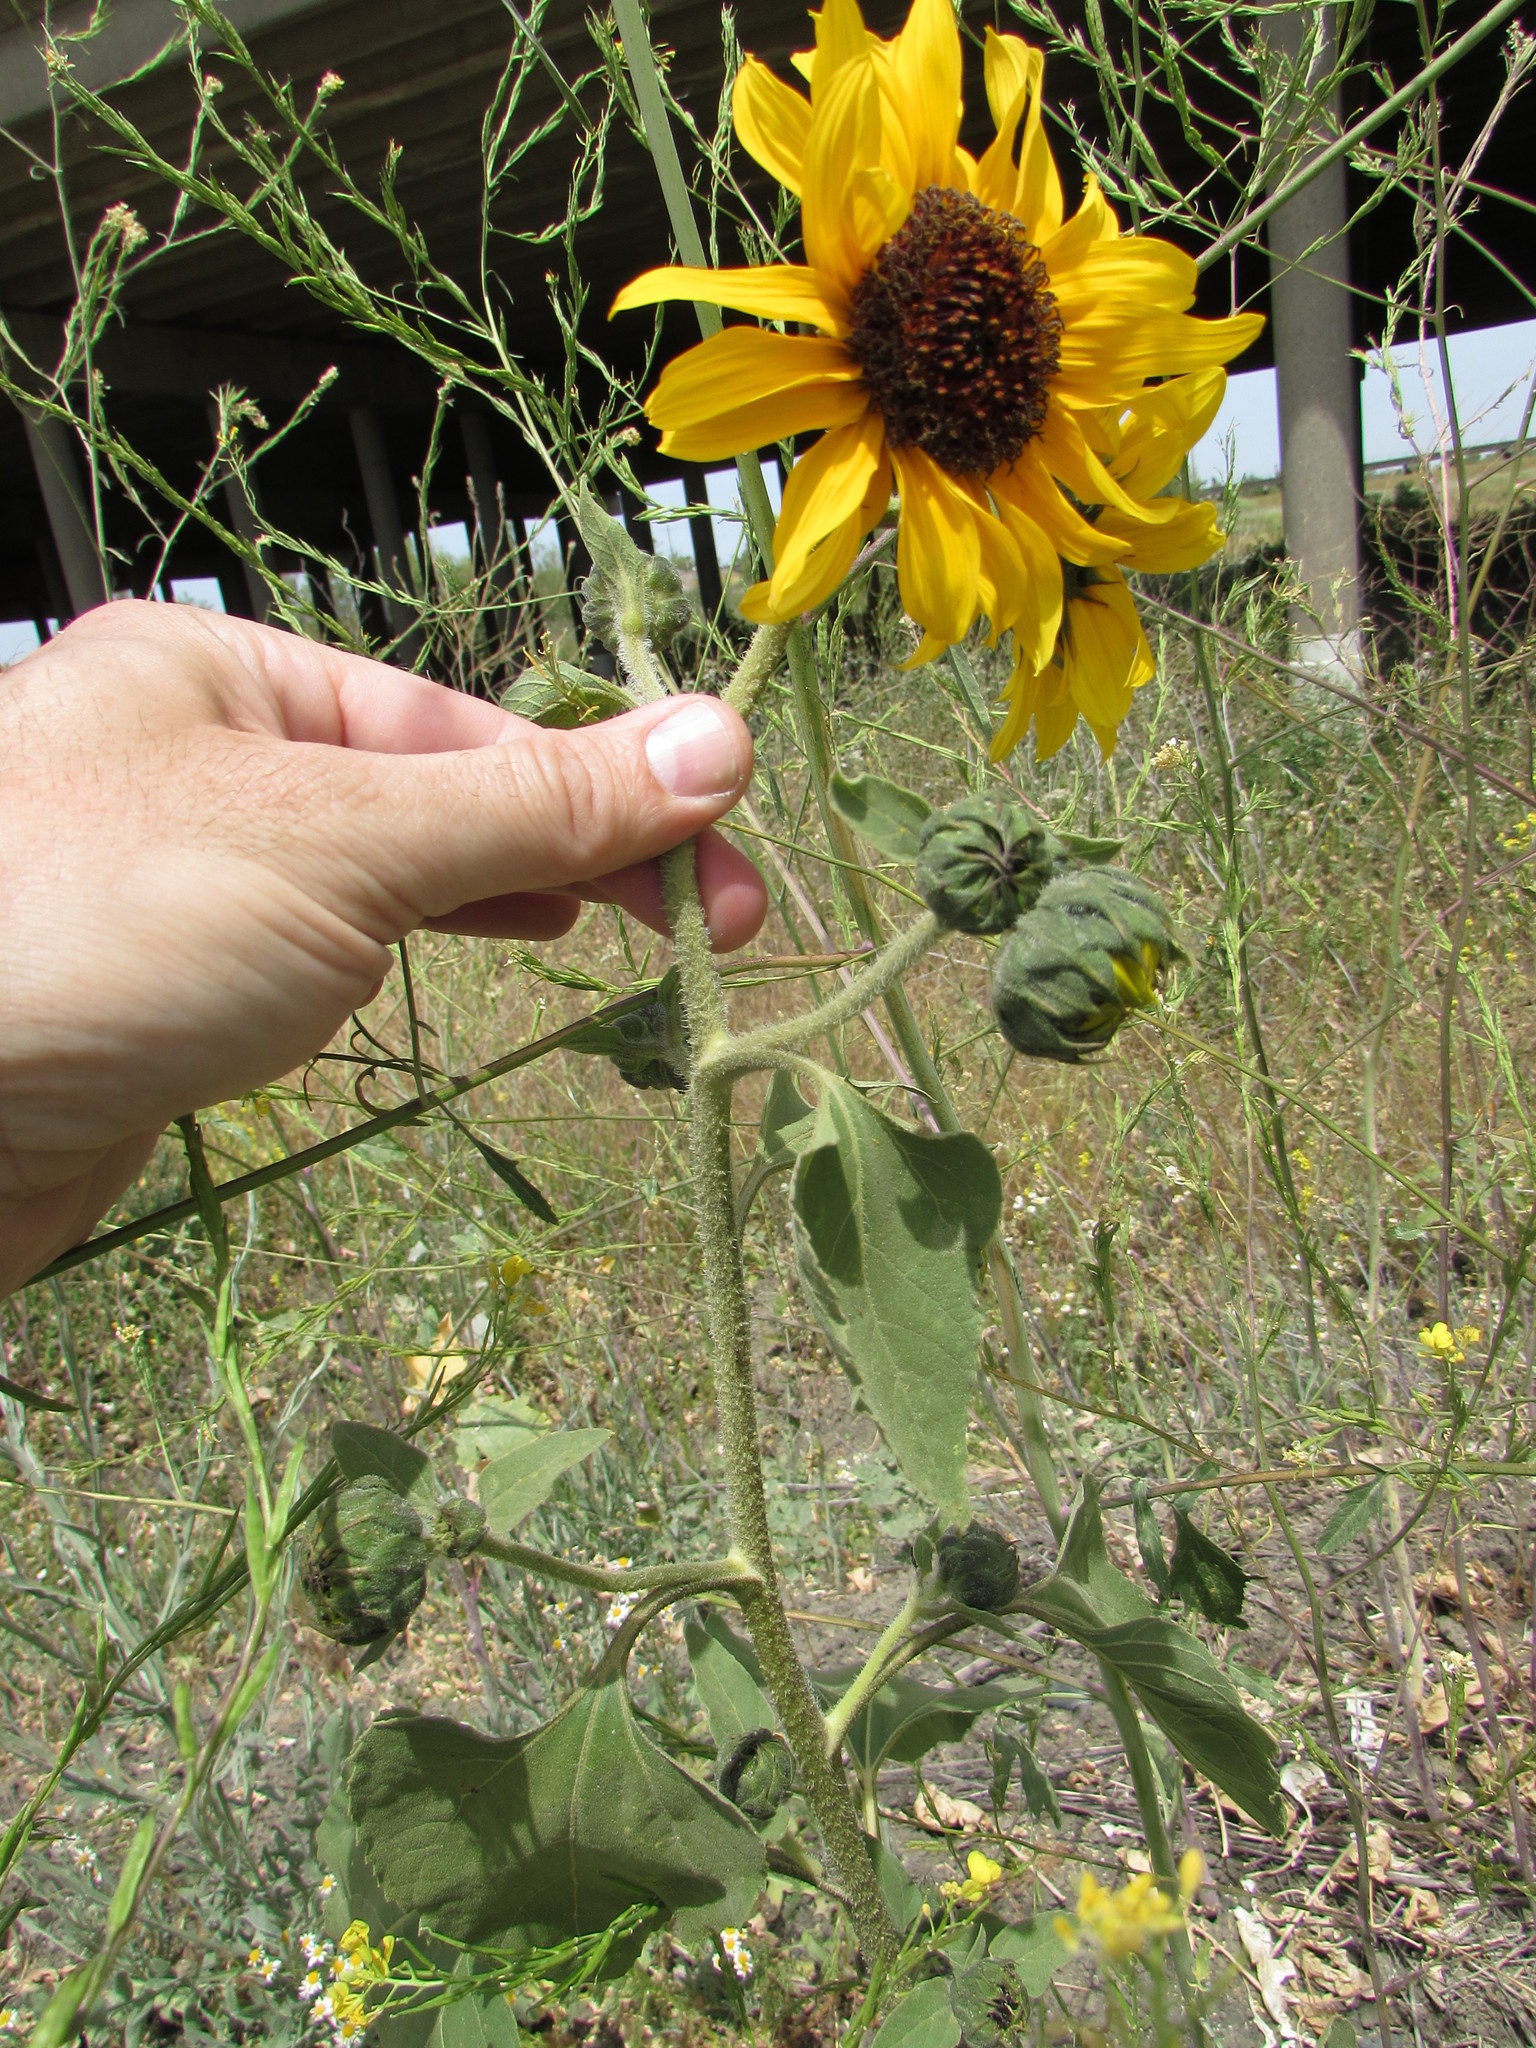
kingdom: Plantae
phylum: Tracheophyta
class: Magnoliopsida
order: Asterales
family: Asteraceae
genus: Helianthus
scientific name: Helianthus annuus
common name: Sunflower
